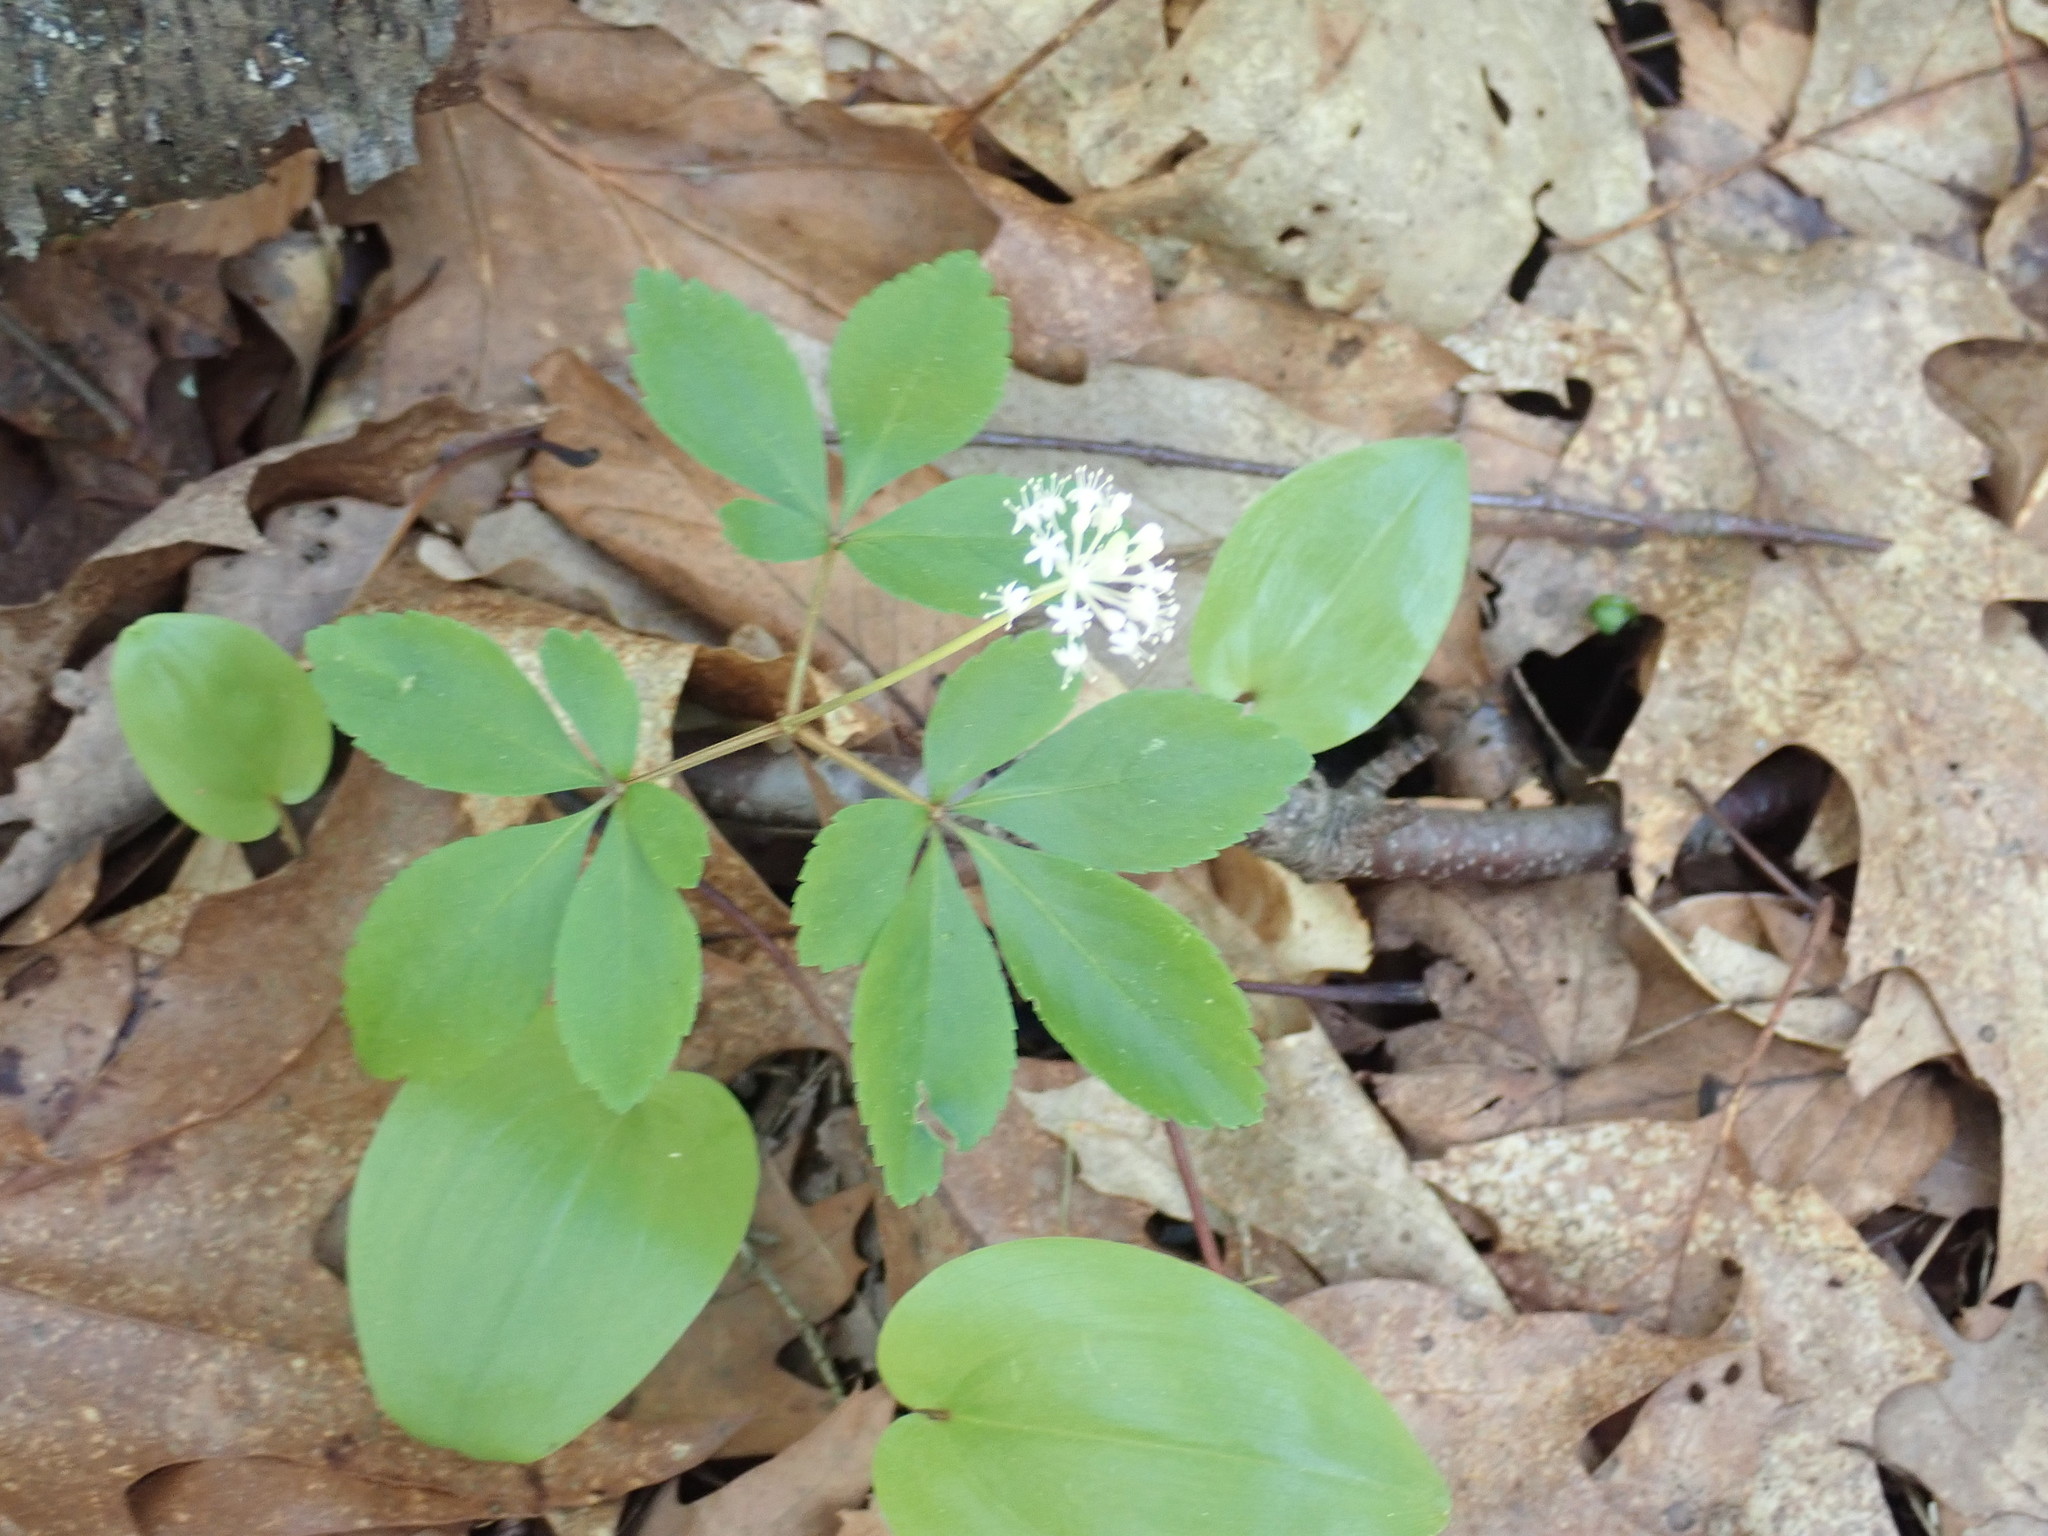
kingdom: Plantae
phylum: Tracheophyta
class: Magnoliopsida
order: Apiales
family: Araliaceae
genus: Panax
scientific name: Panax trifolius
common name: Dwarf ginseng
